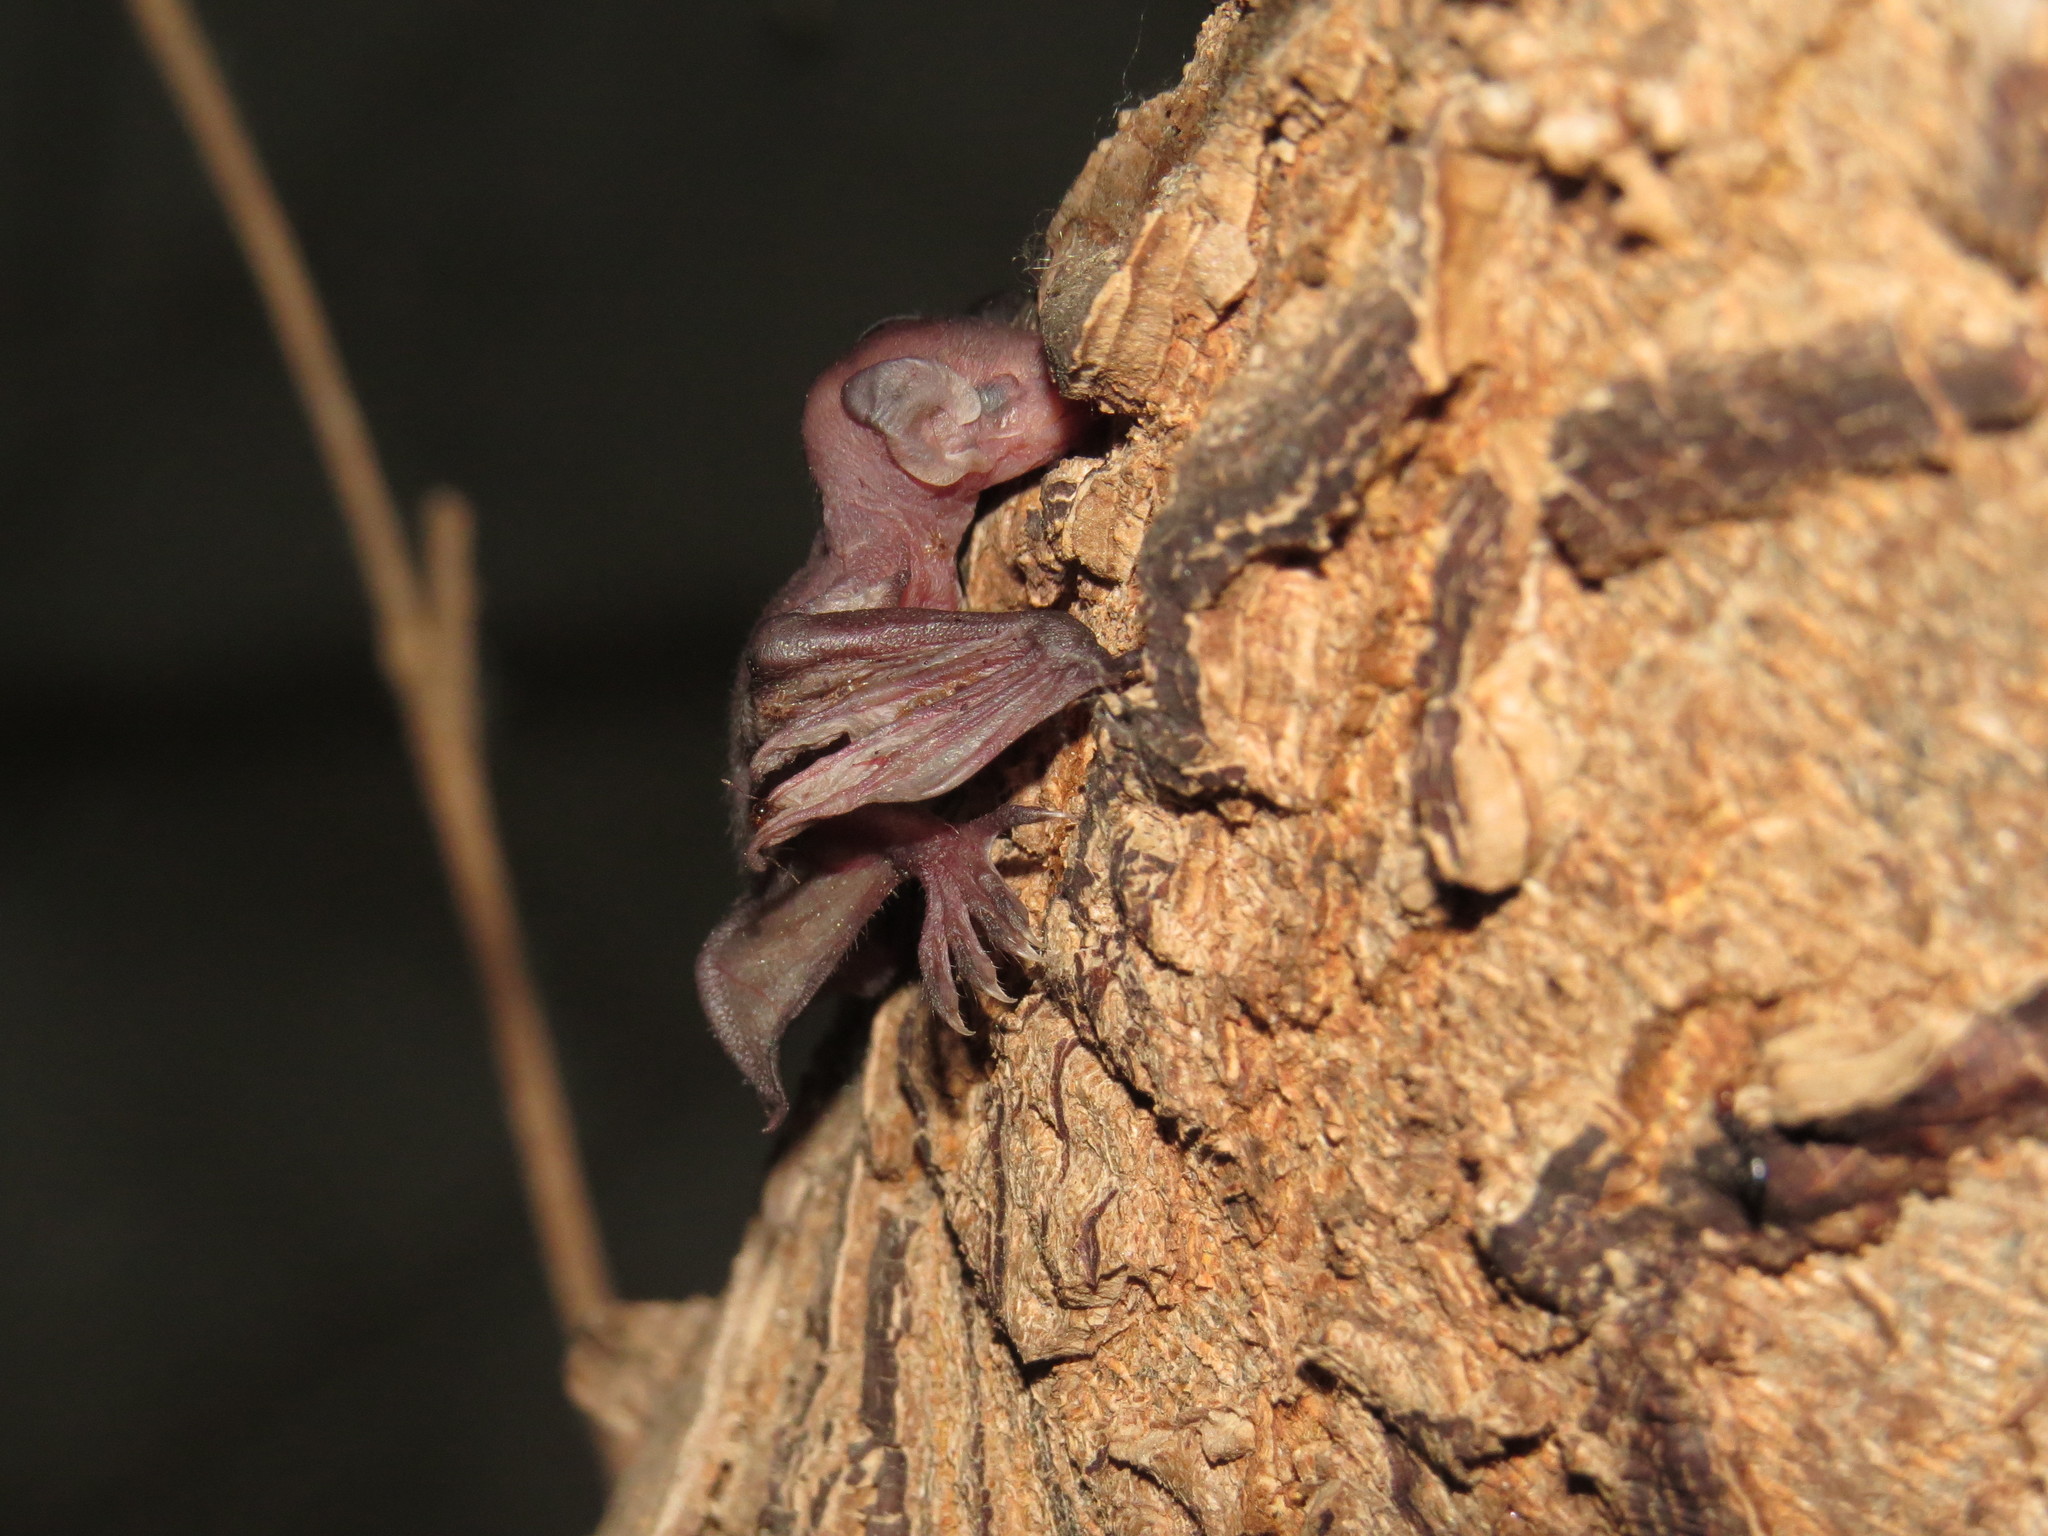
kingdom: Animalia
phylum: Chordata
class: Mammalia
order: Chiroptera
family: Vespertilionidae
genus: Myotis
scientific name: Myotis daubentonii
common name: Daubenton's myotis
